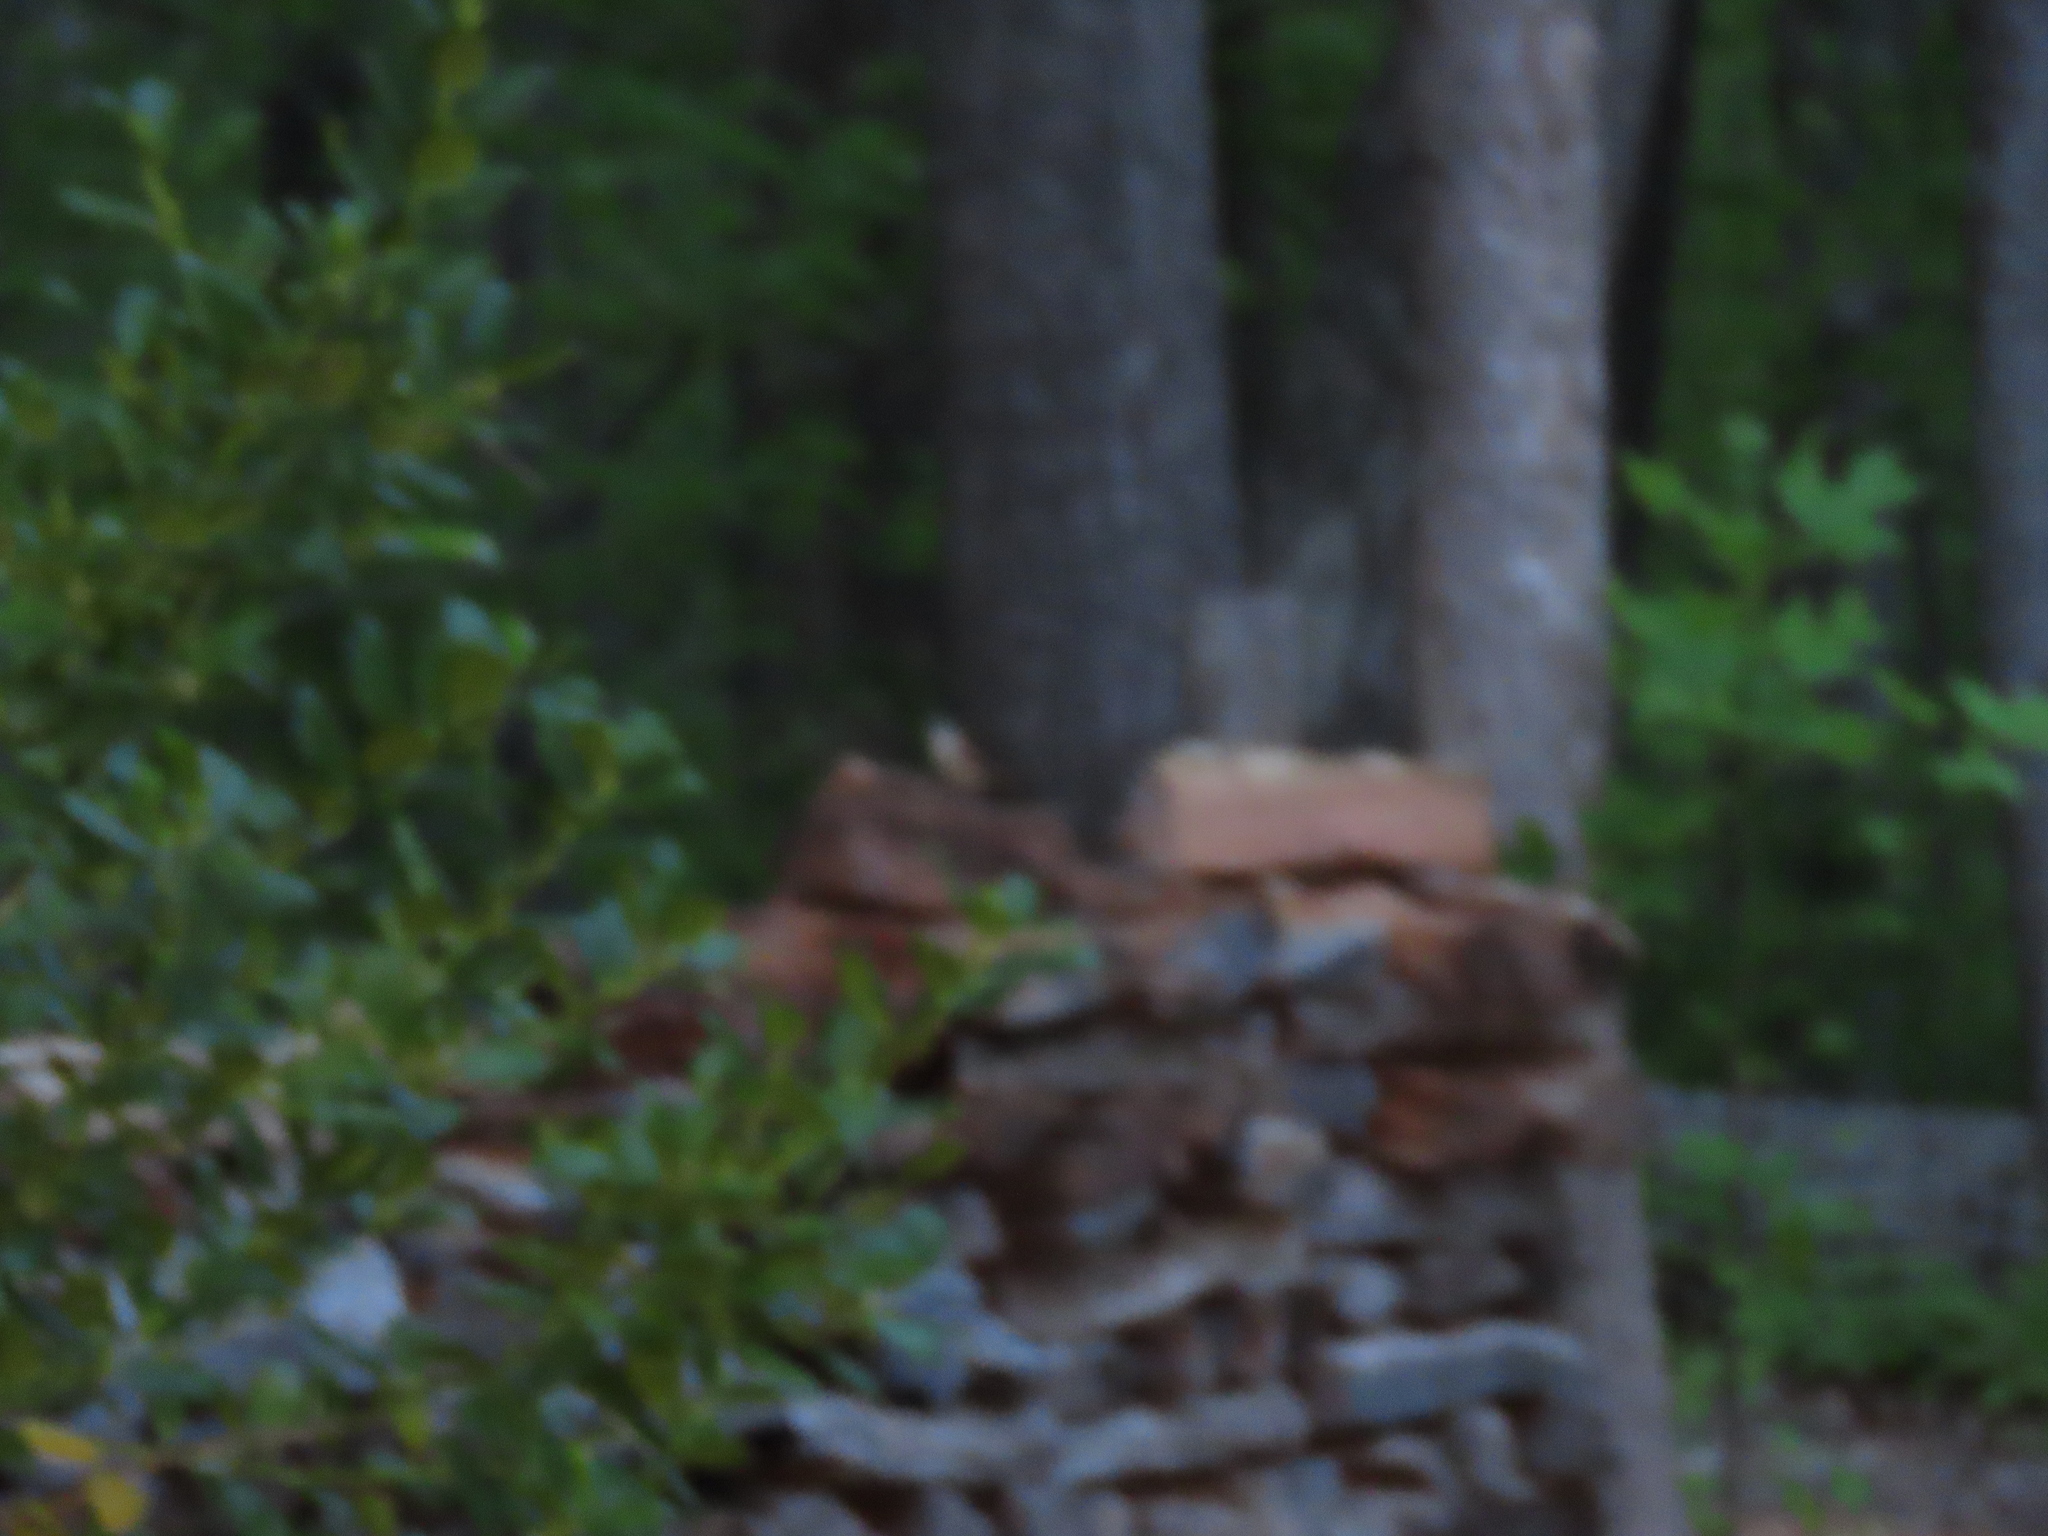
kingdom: Animalia
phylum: Chordata
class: Aves
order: Passeriformes
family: Troglodytidae
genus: Thryothorus
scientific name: Thryothorus ludovicianus
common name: Carolina wren
